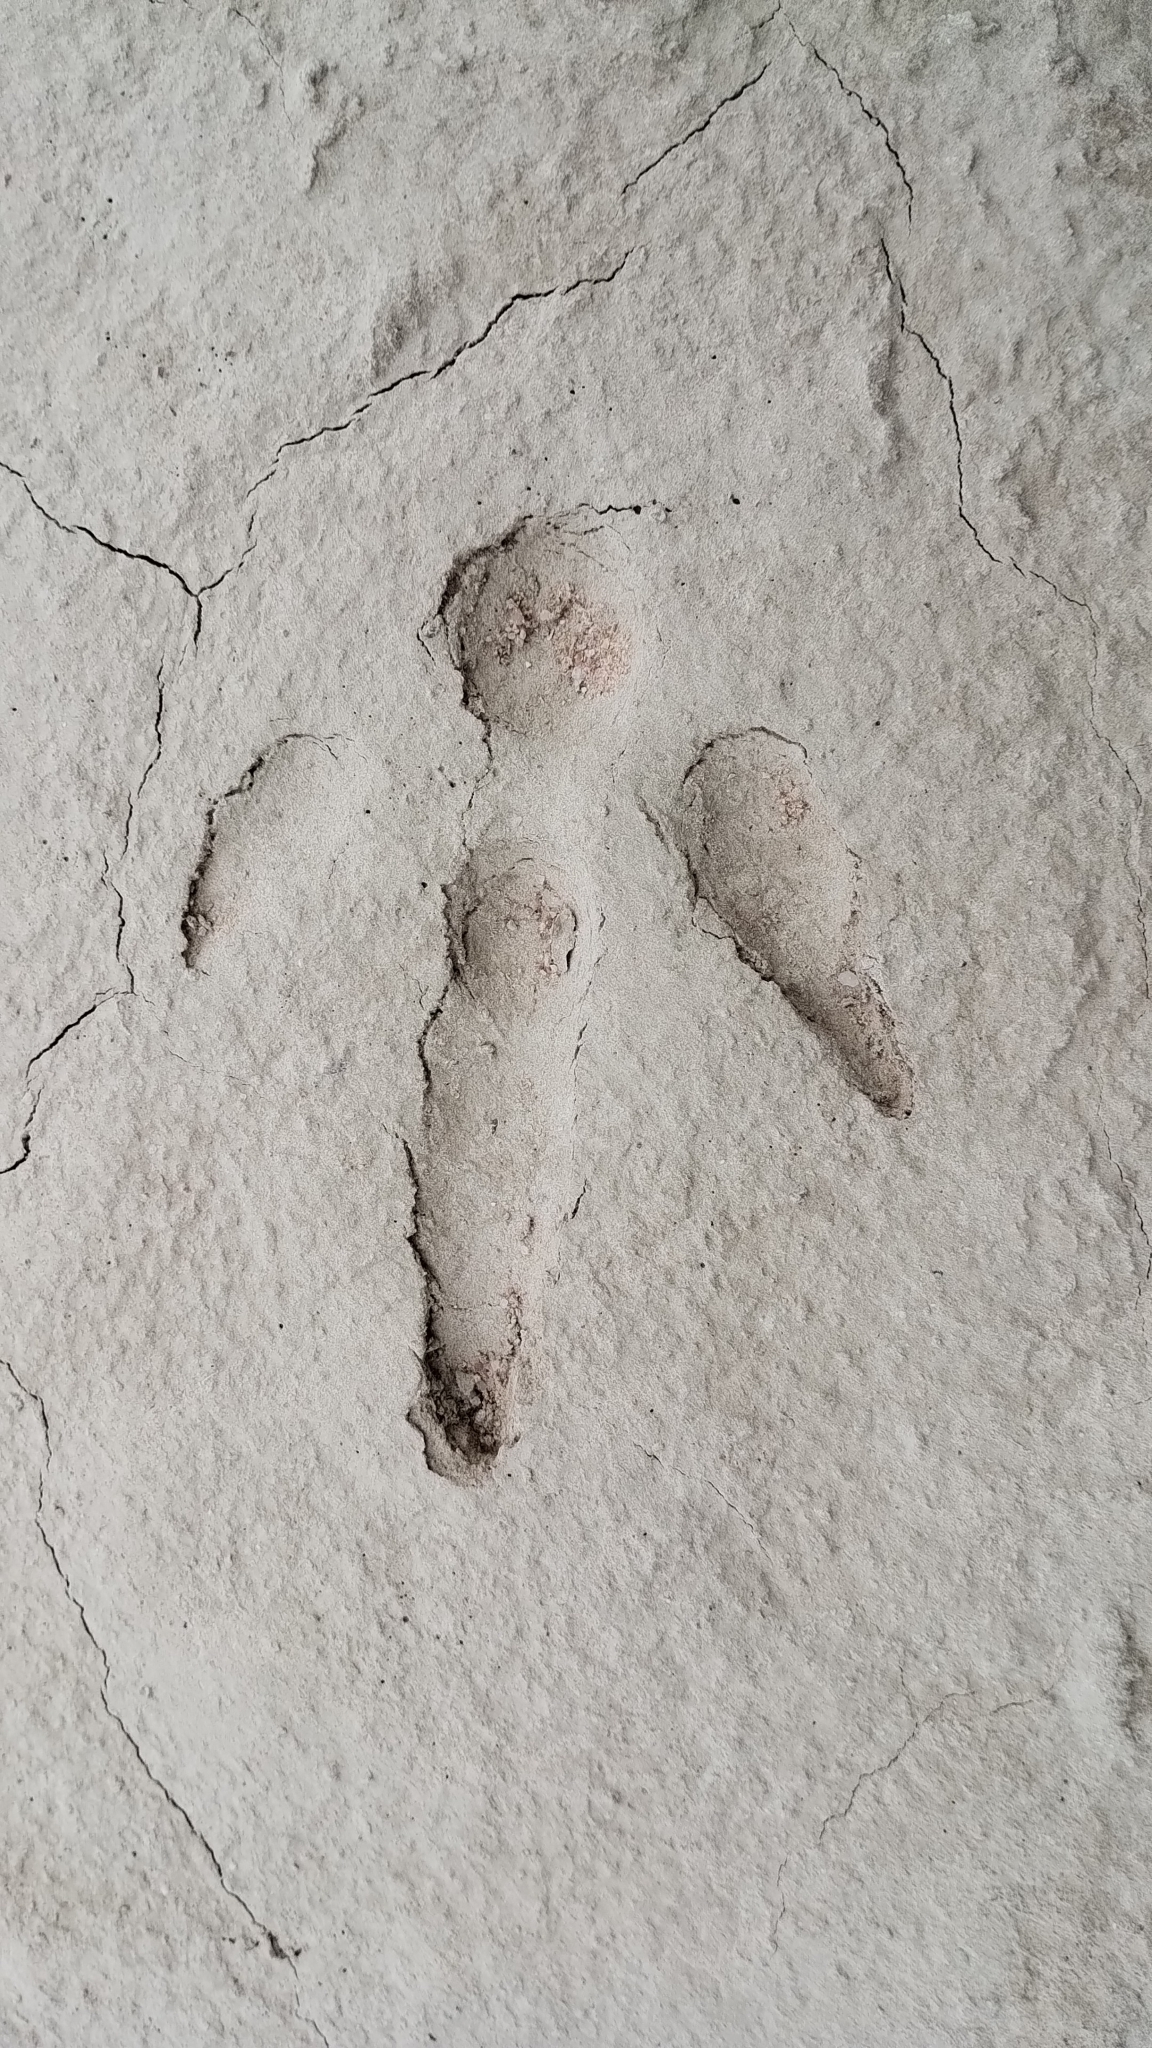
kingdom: Animalia
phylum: Chordata
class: Aves
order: Rheiformes
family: Rheidae
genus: Rhea
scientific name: Rhea americana
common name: Greater rhea
